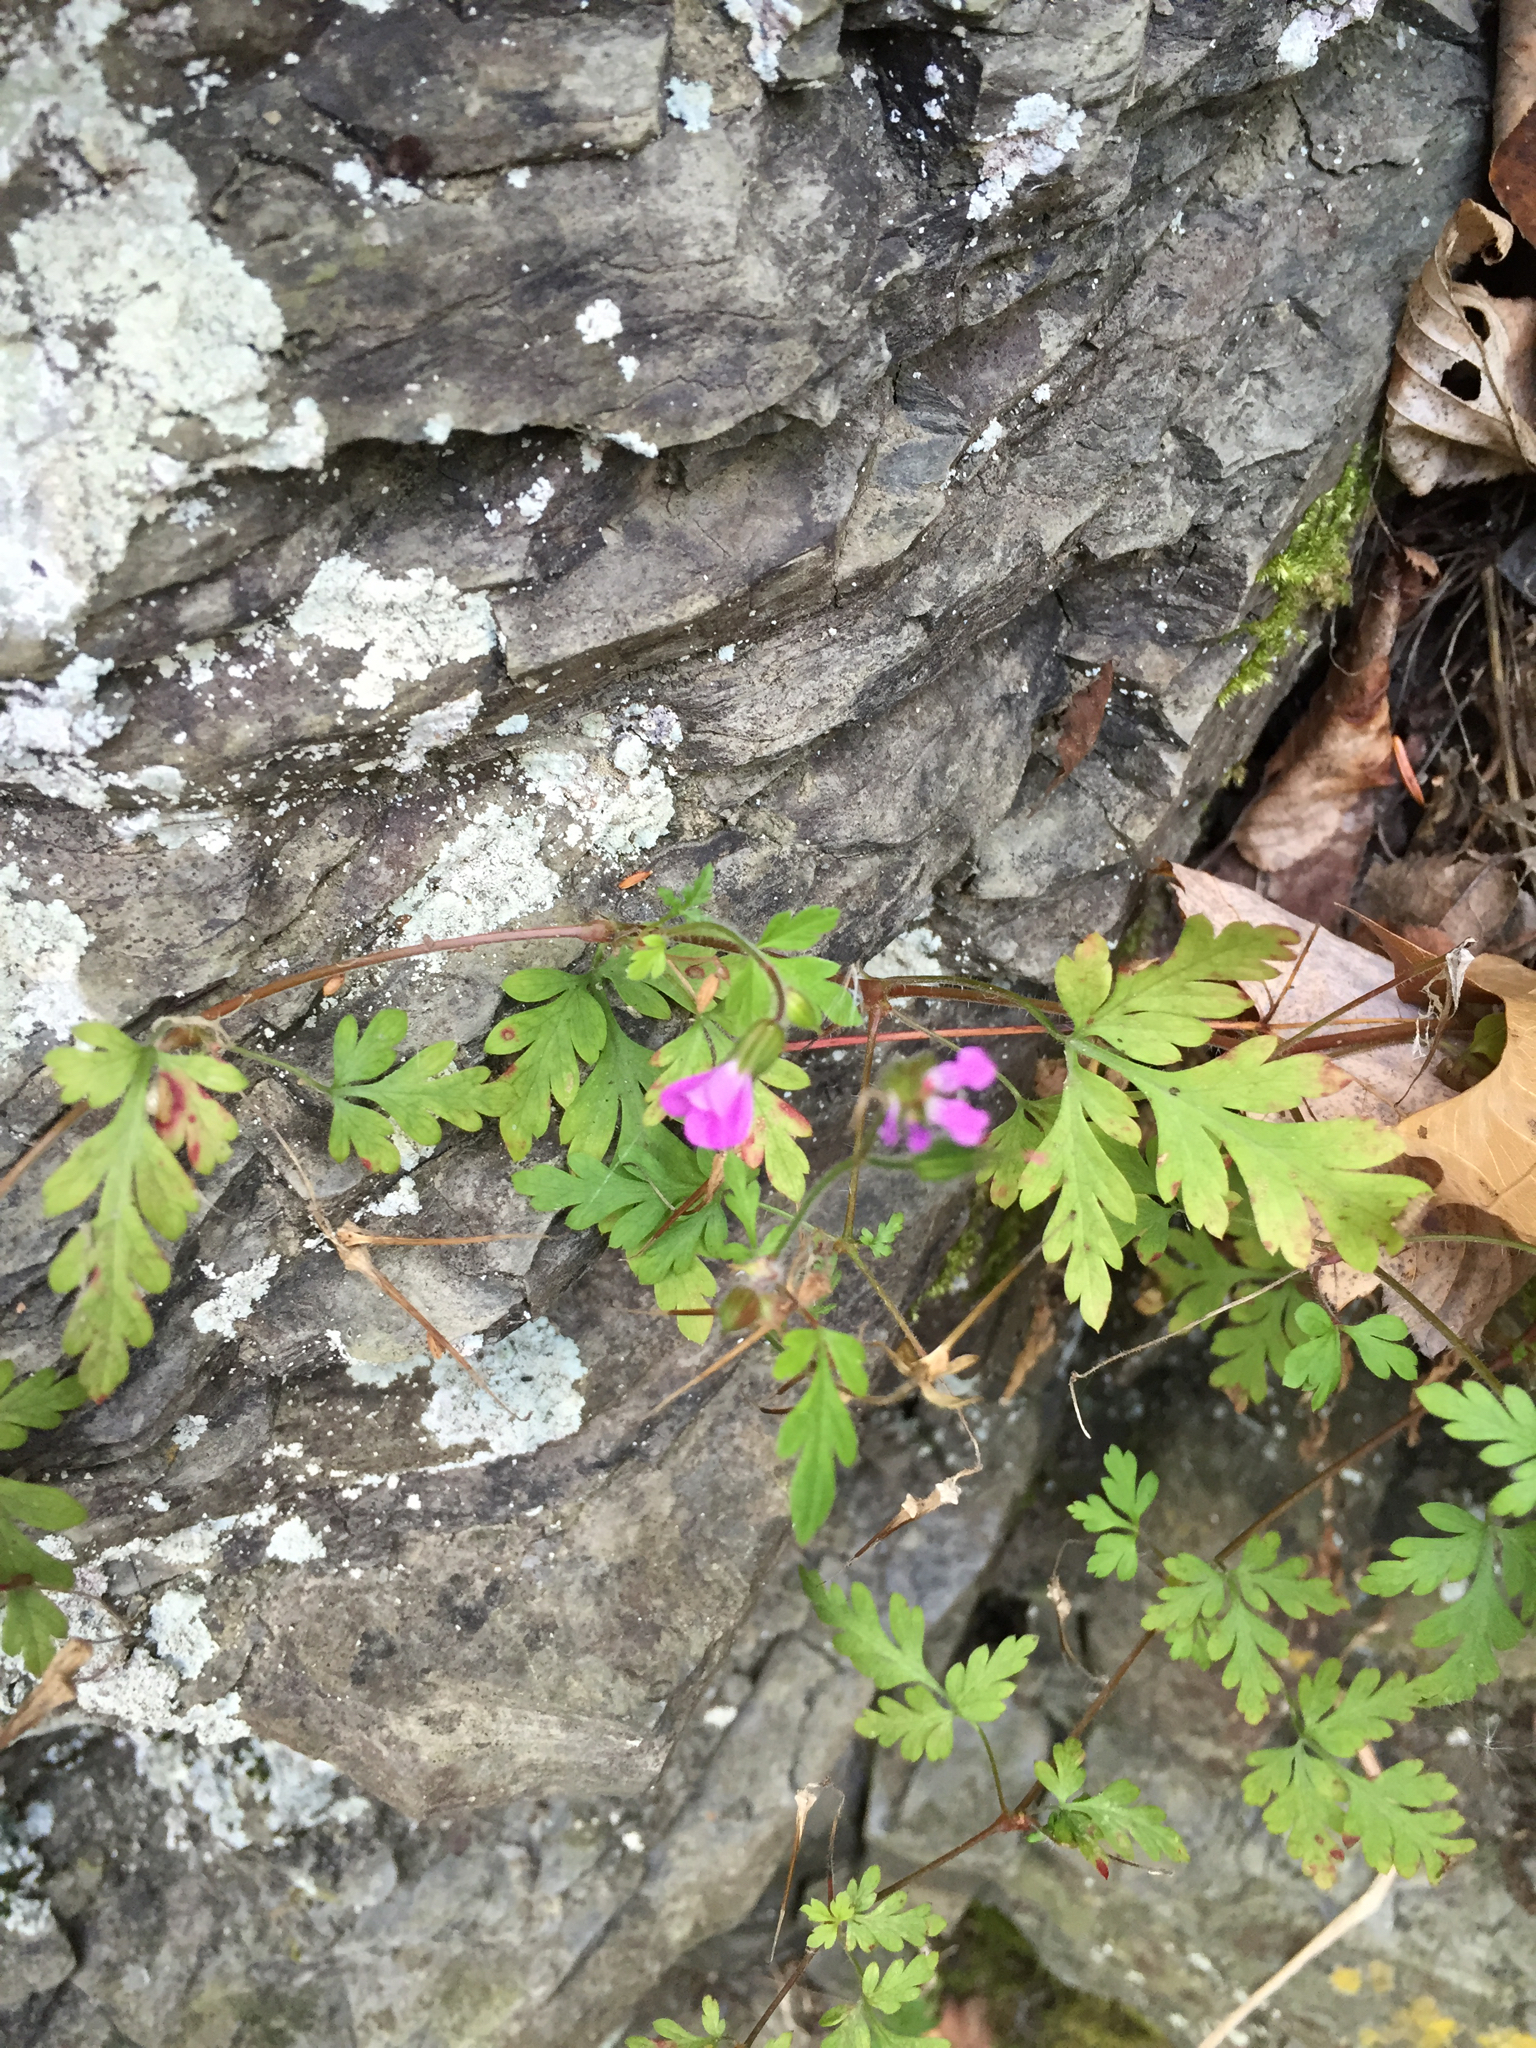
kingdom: Plantae
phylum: Tracheophyta
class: Magnoliopsida
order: Geraniales
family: Geraniaceae
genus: Geranium
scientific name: Geranium robertianum
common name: Herb-robert
